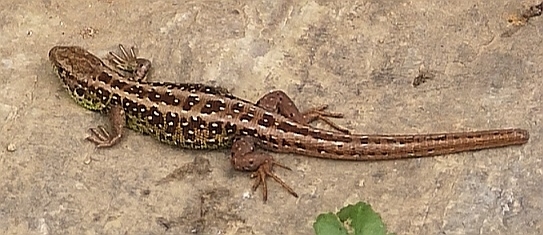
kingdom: Animalia
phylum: Chordata
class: Squamata
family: Lacertidae
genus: Lacerta
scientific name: Lacerta agilis
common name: Sand lizard
